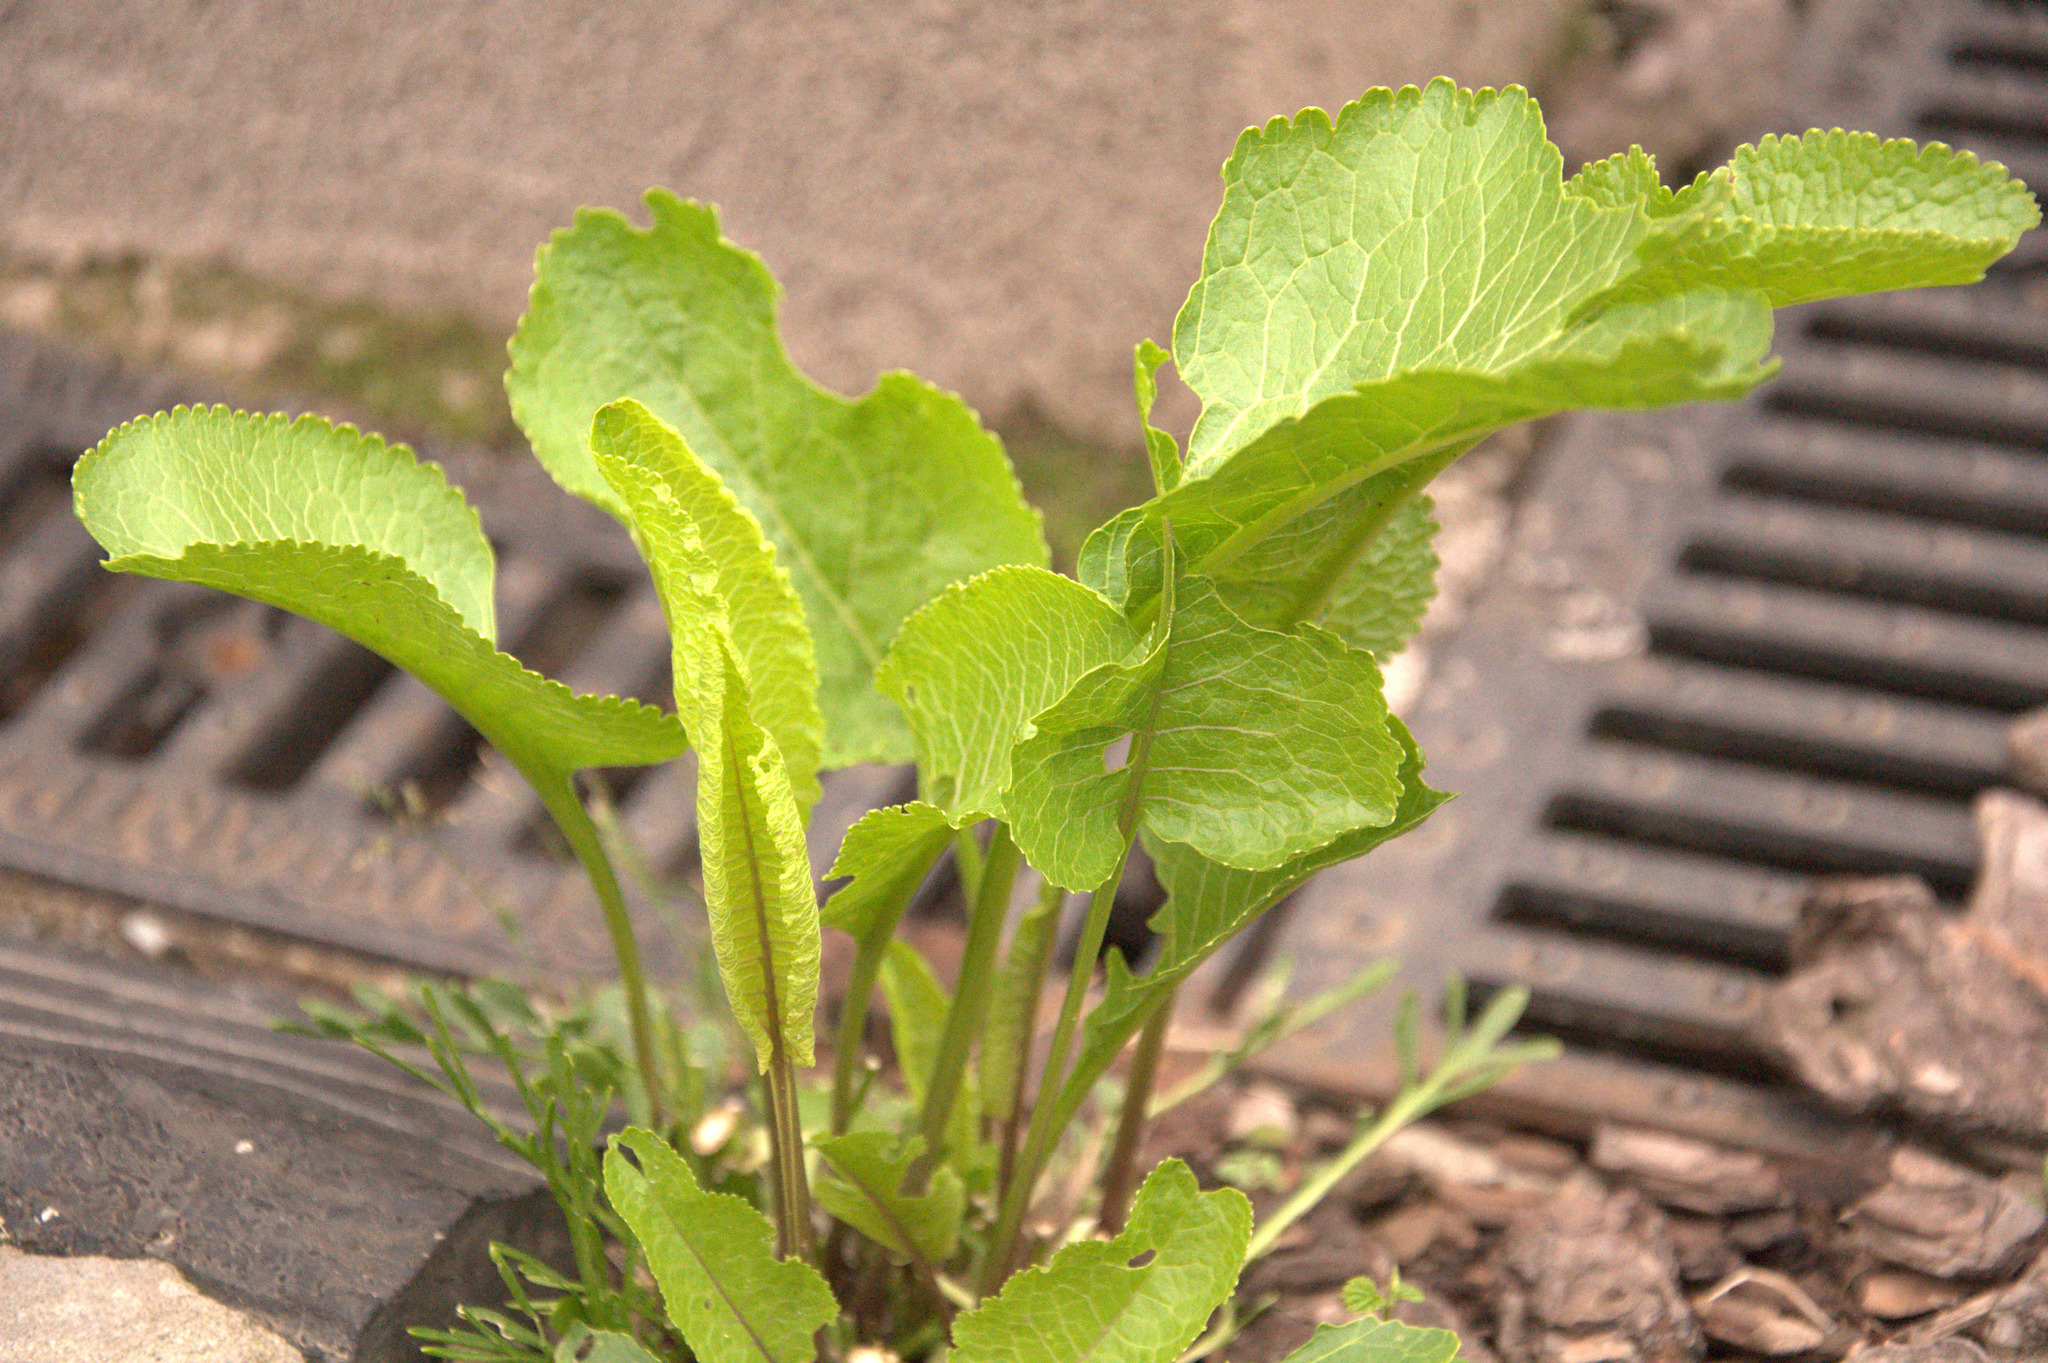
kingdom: Plantae
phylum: Tracheophyta
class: Magnoliopsida
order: Brassicales
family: Brassicaceae
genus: Armoracia
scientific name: Armoracia rusticana
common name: Horseradish
